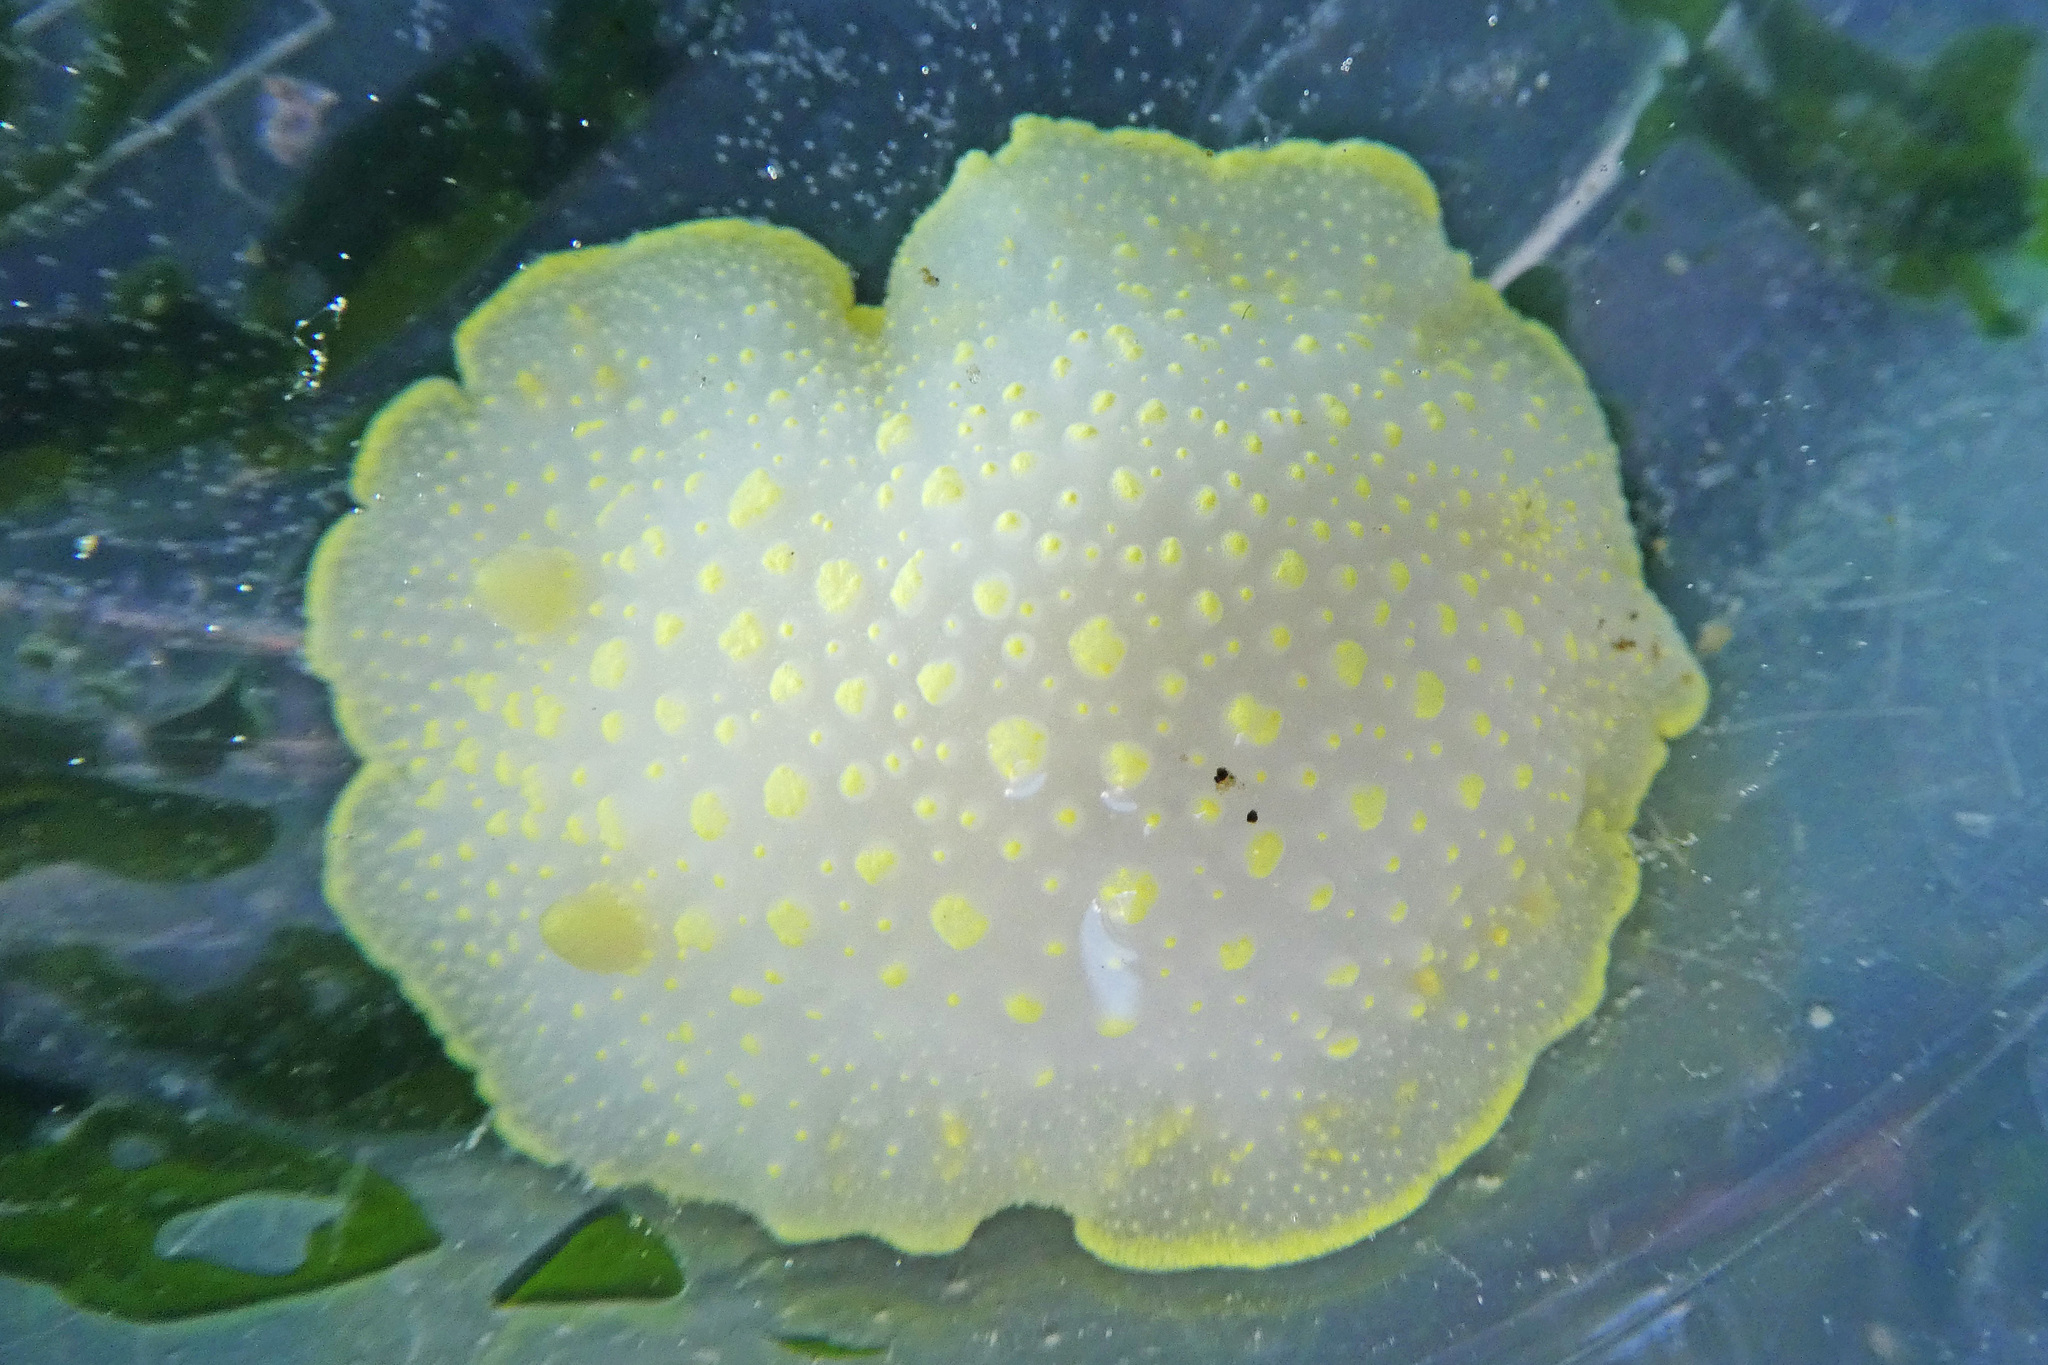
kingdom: Animalia
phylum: Mollusca
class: Gastropoda
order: Nudibranchia
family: Cadlinidae
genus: Cadlina
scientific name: Cadlina luteomarginata
